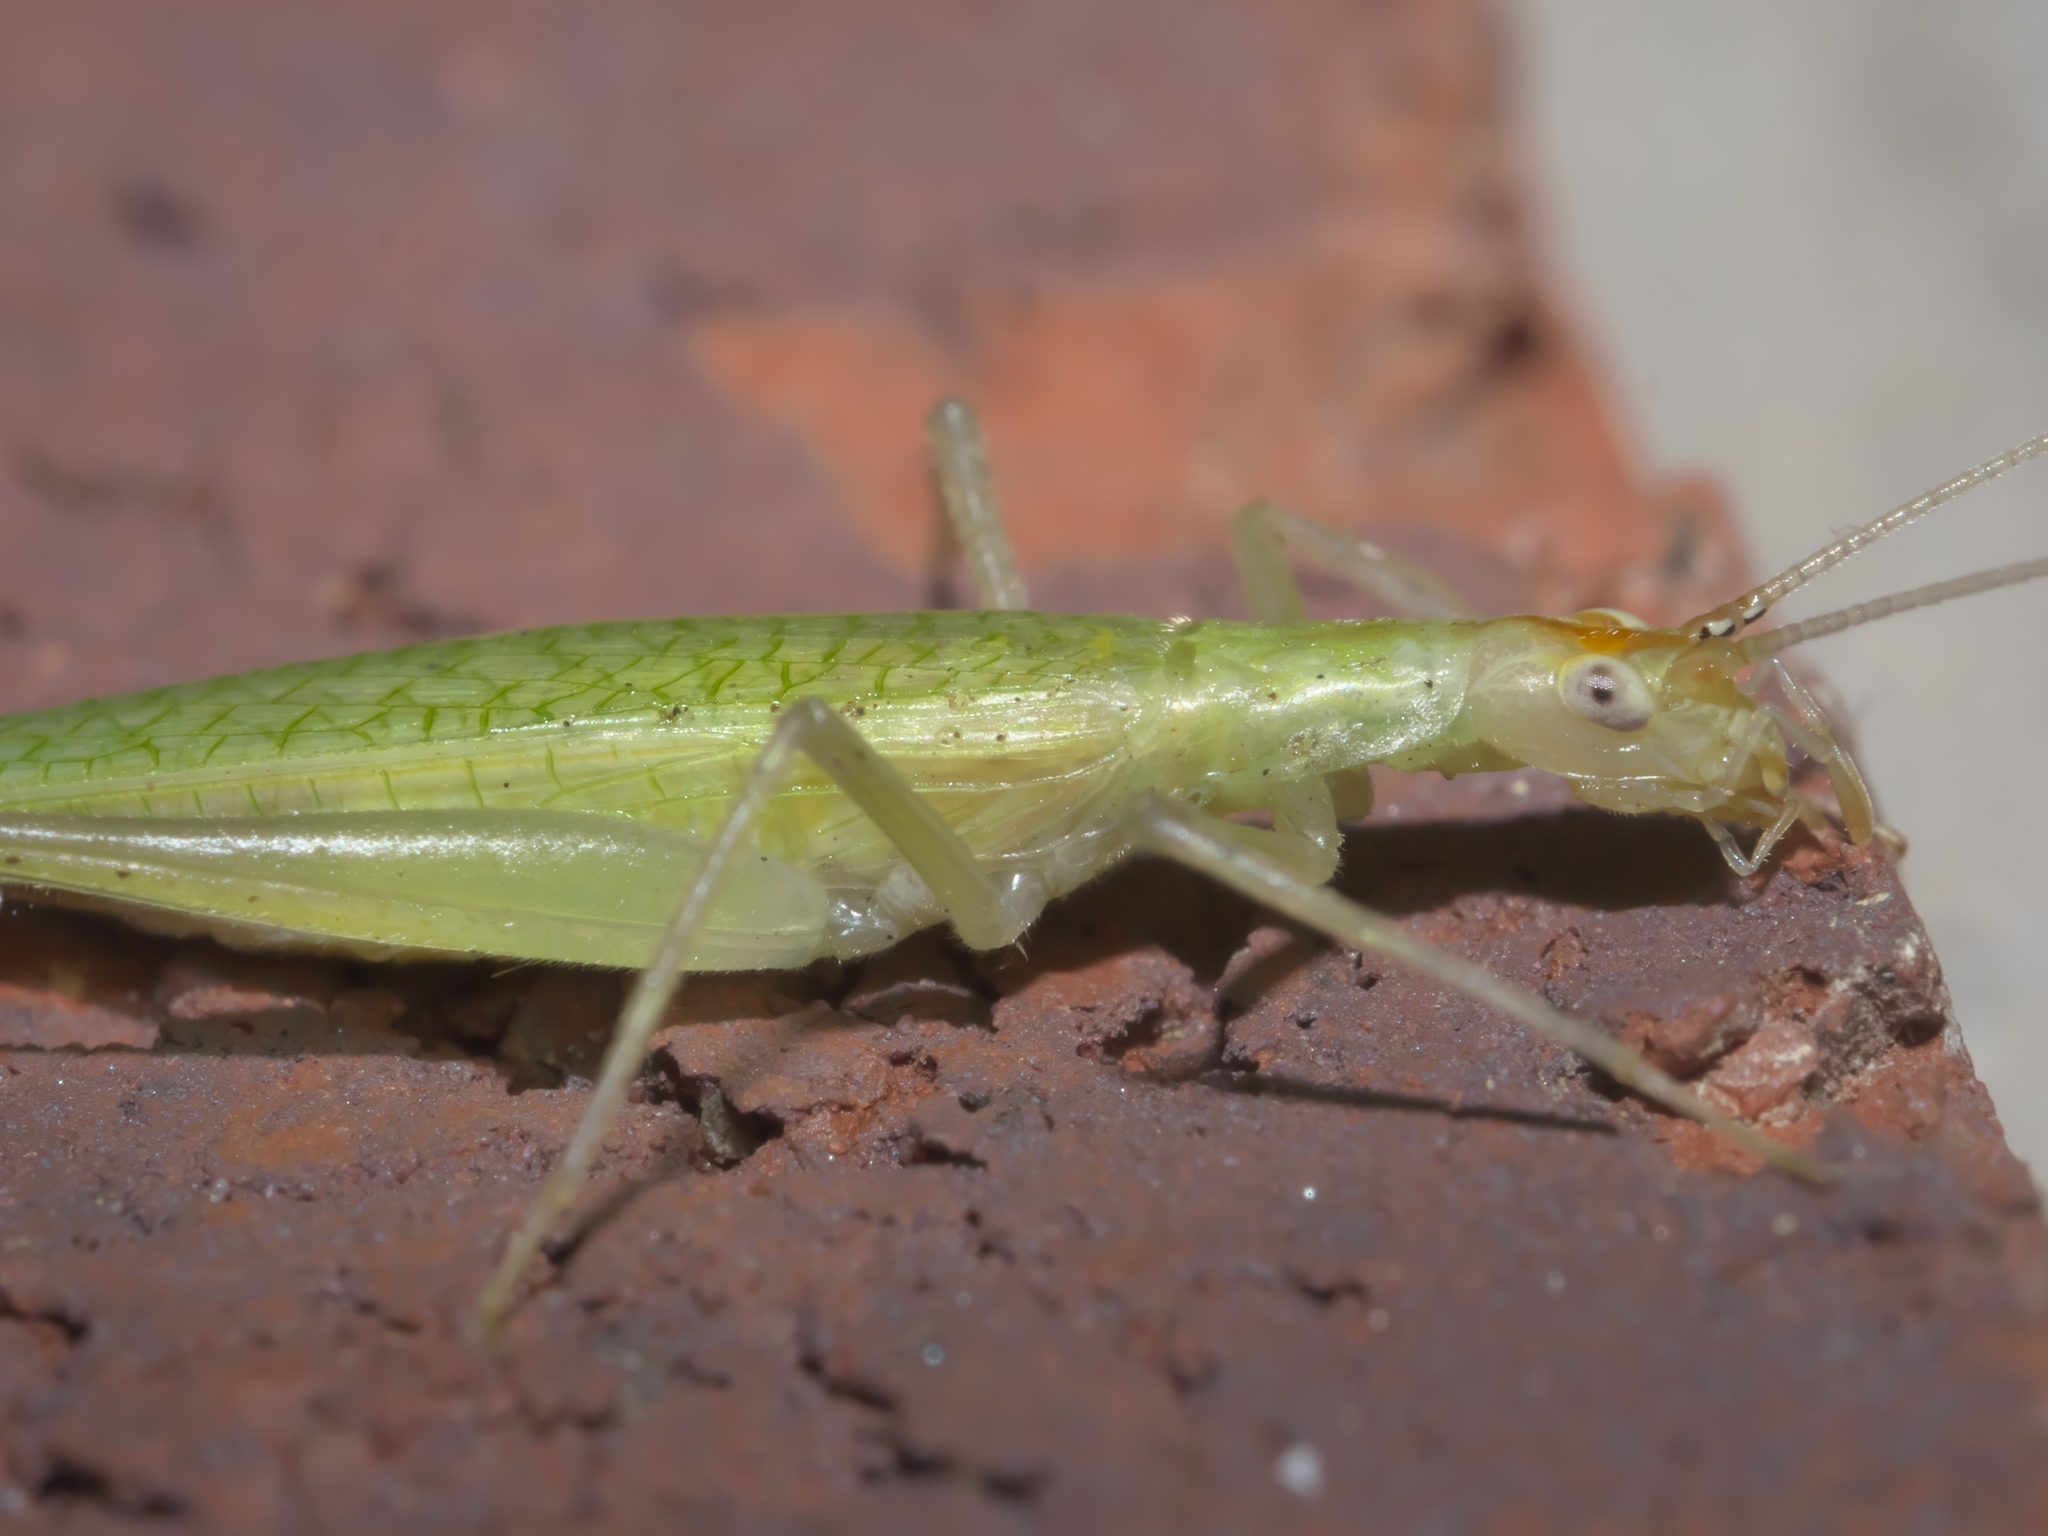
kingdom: Animalia
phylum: Arthropoda
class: Insecta
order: Orthoptera
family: Gryllidae
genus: Oecanthus
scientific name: Oecanthus niveus
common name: Narrow-winged tree cricket
